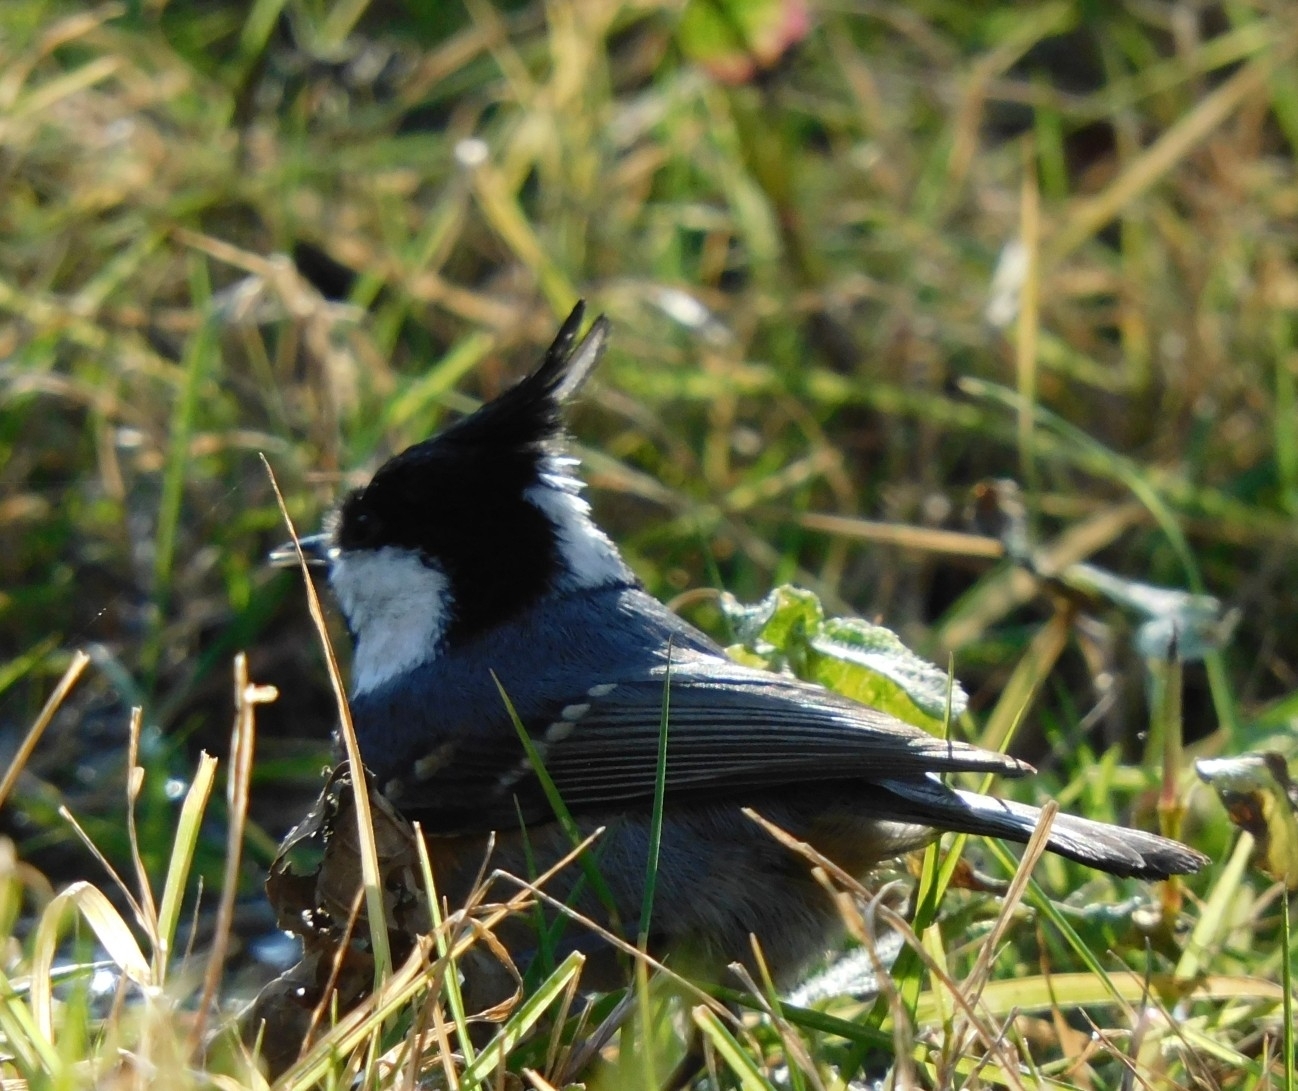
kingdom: Animalia
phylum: Chordata
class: Aves
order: Passeriformes
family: Paridae
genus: Periparus
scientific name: Periparus ater
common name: Coal tit
